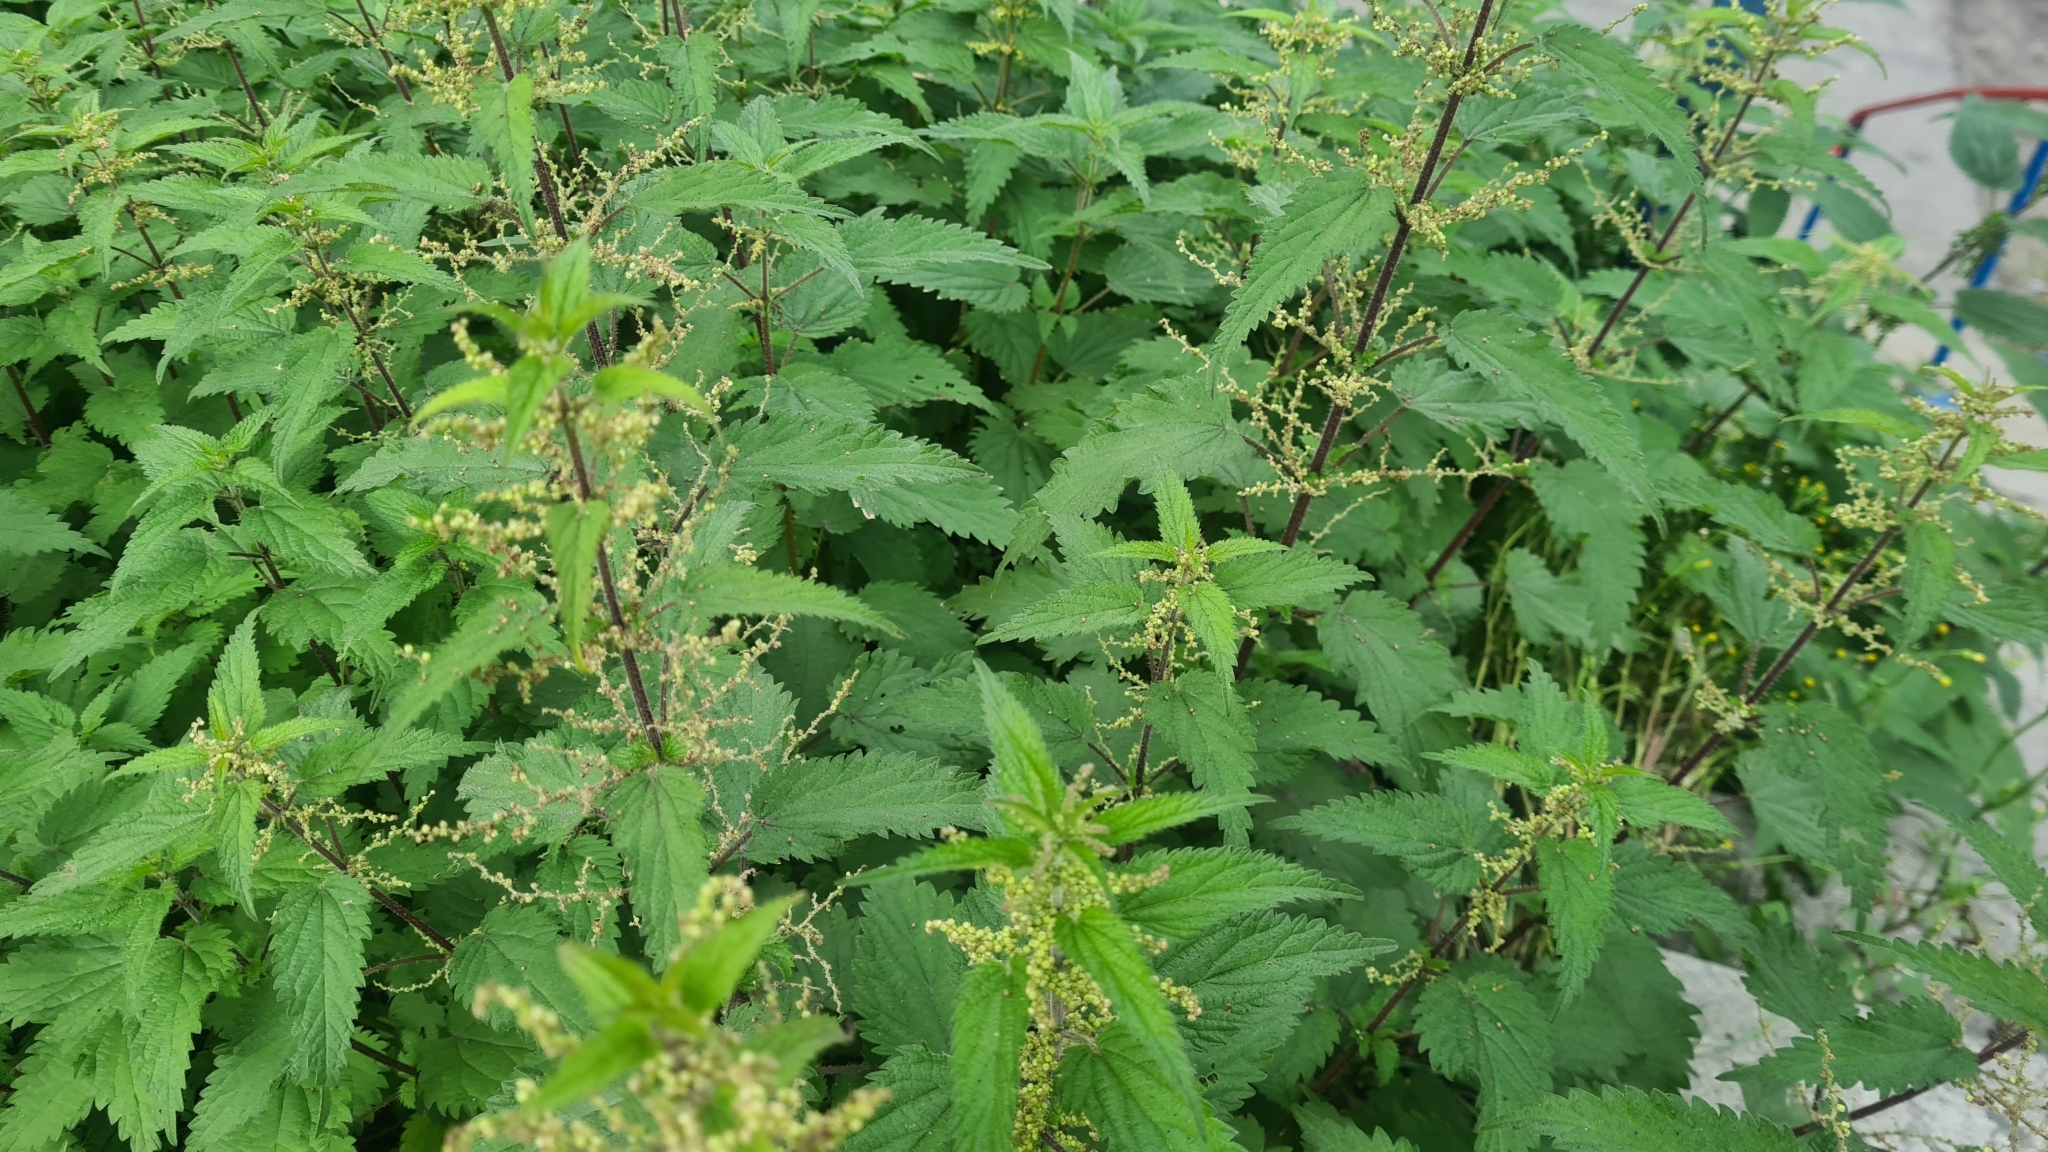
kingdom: Plantae
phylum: Tracheophyta
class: Magnoliopsida
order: Rosales
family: Urticaceae
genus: Urtica
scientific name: Urtica dioica
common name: Common nettle
